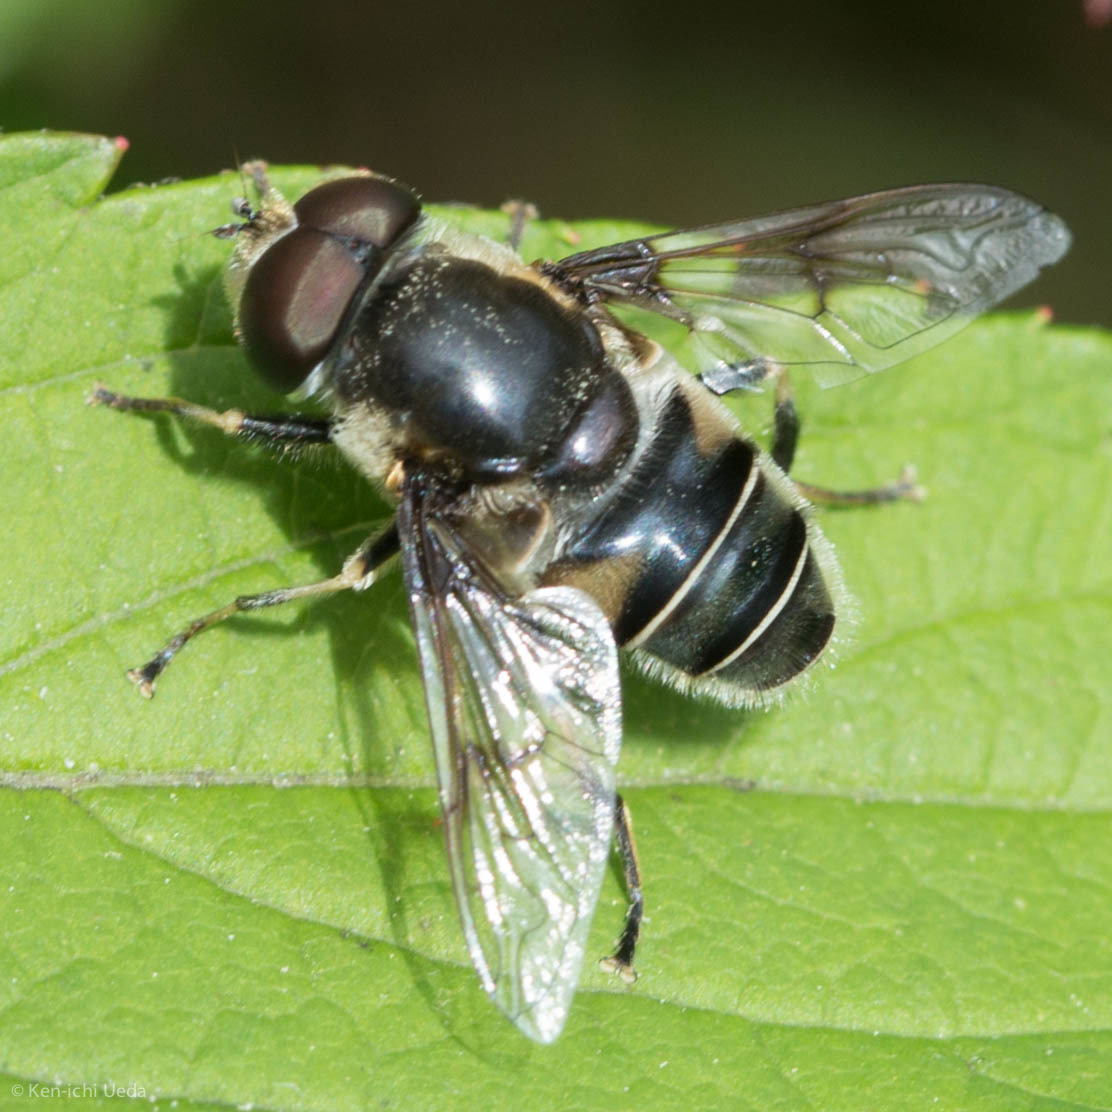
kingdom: Animalia
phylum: Arthropoda
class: Insecta
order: Diptera
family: Syrphidae
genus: Eristalis
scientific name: Eristalis saxorum
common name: Blue-polished drone fly
